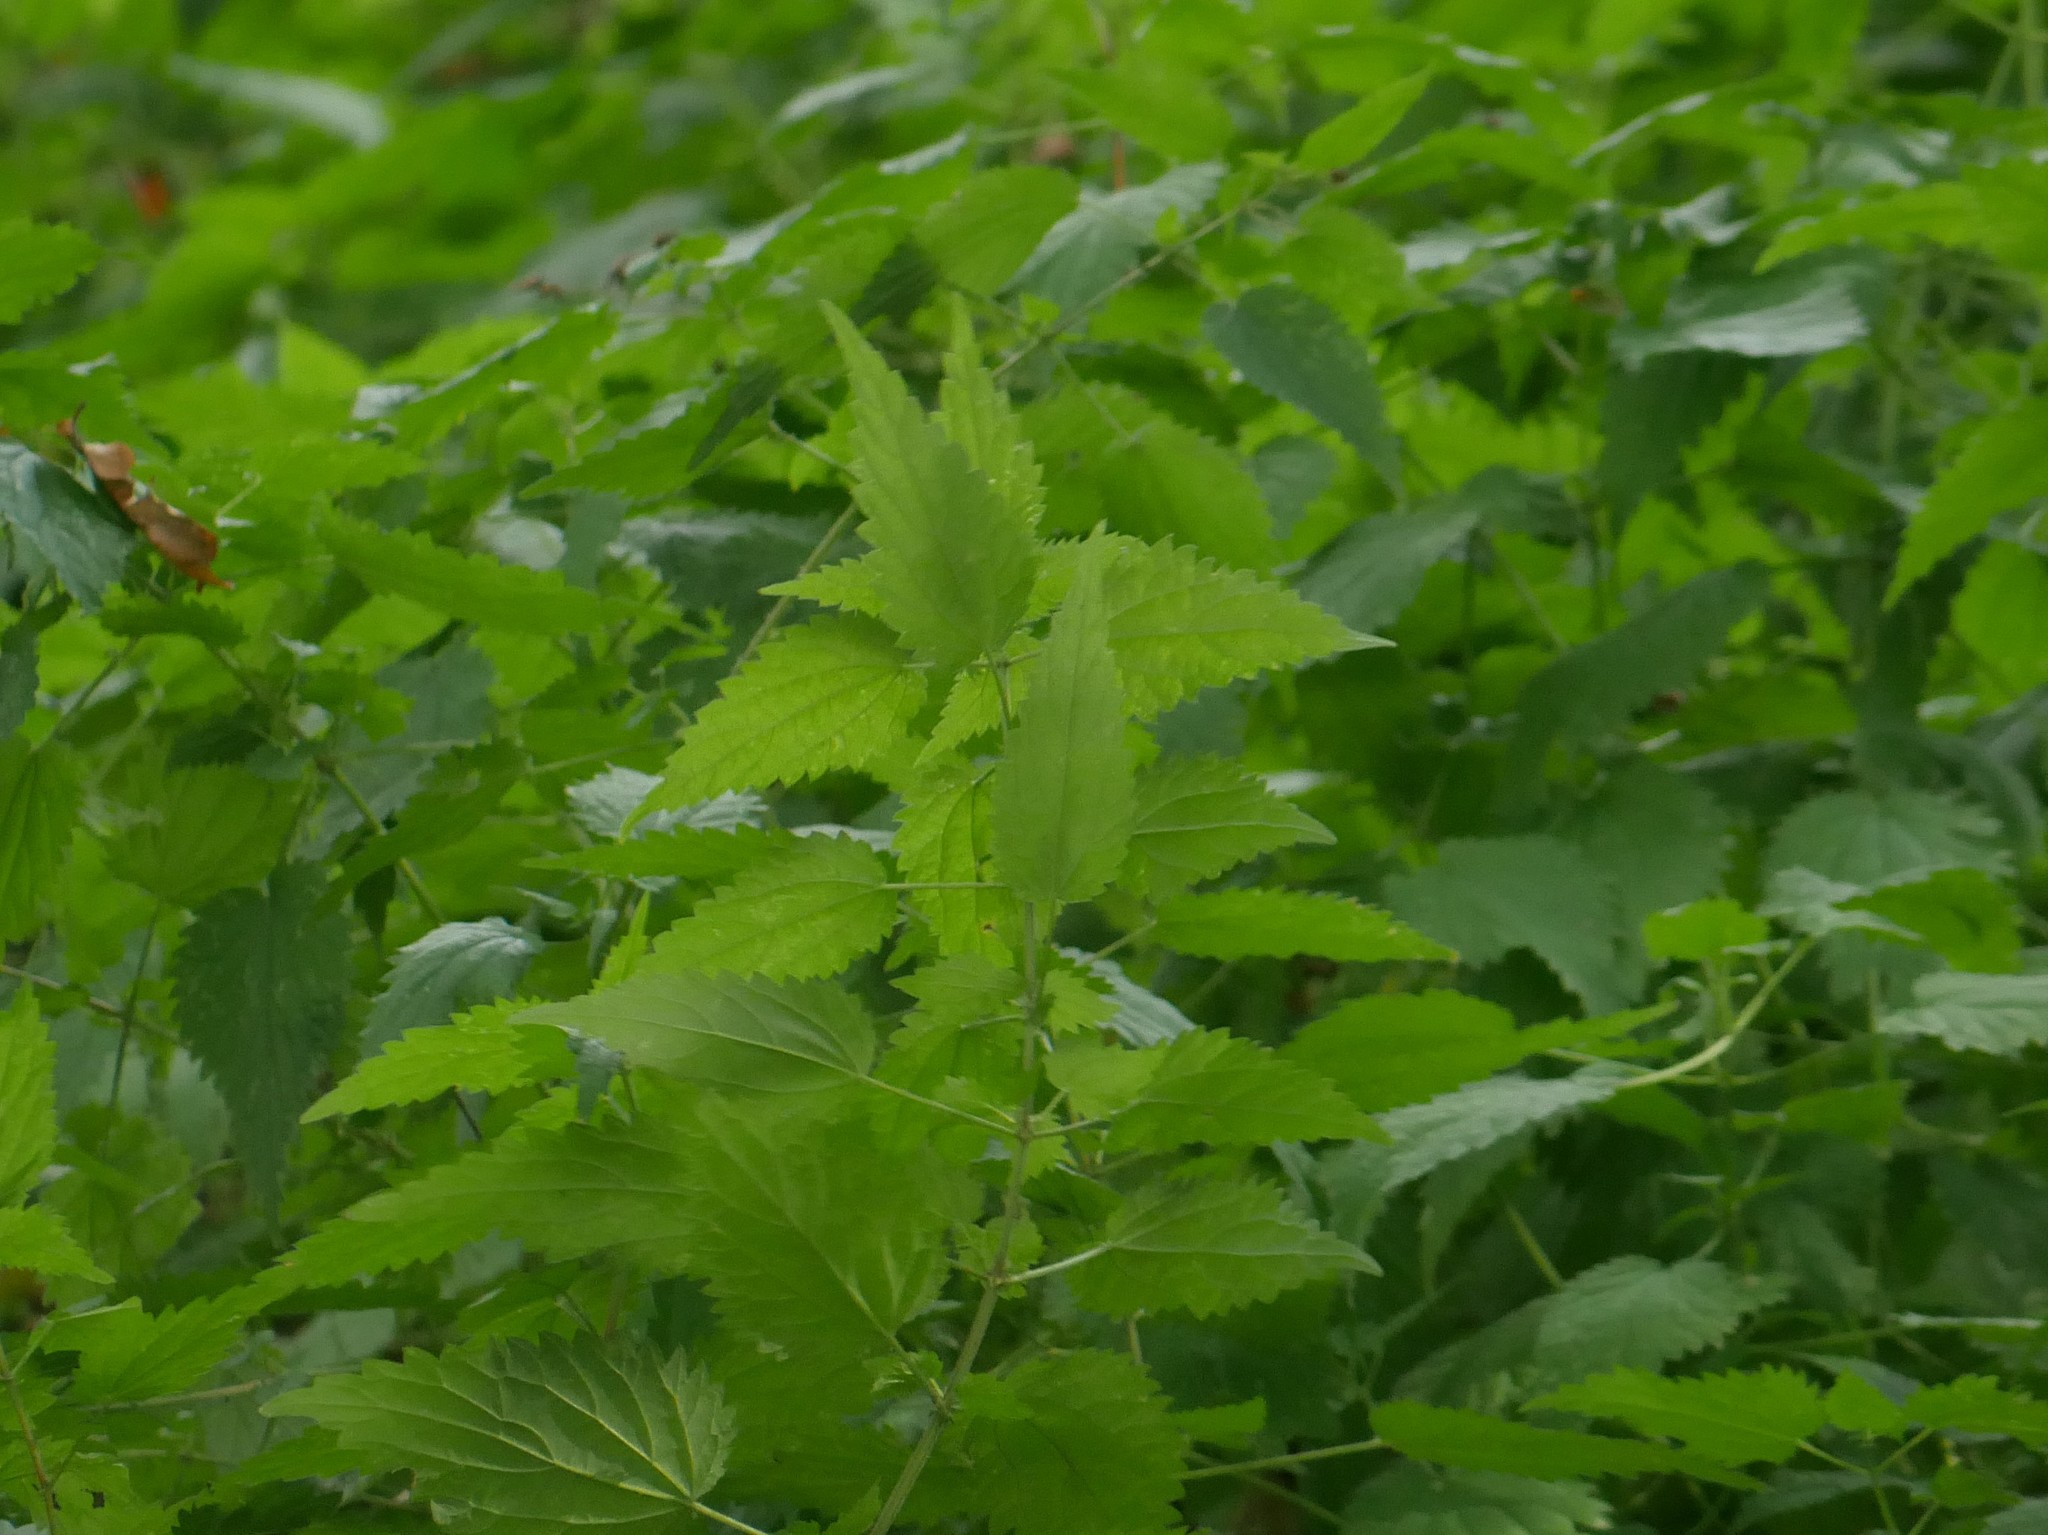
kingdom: Plantae
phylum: Tracheophyta
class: Magnoliopsida
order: Rosales
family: Urticaceae
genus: Urtica
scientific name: Urtica dioica
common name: Common nettle
